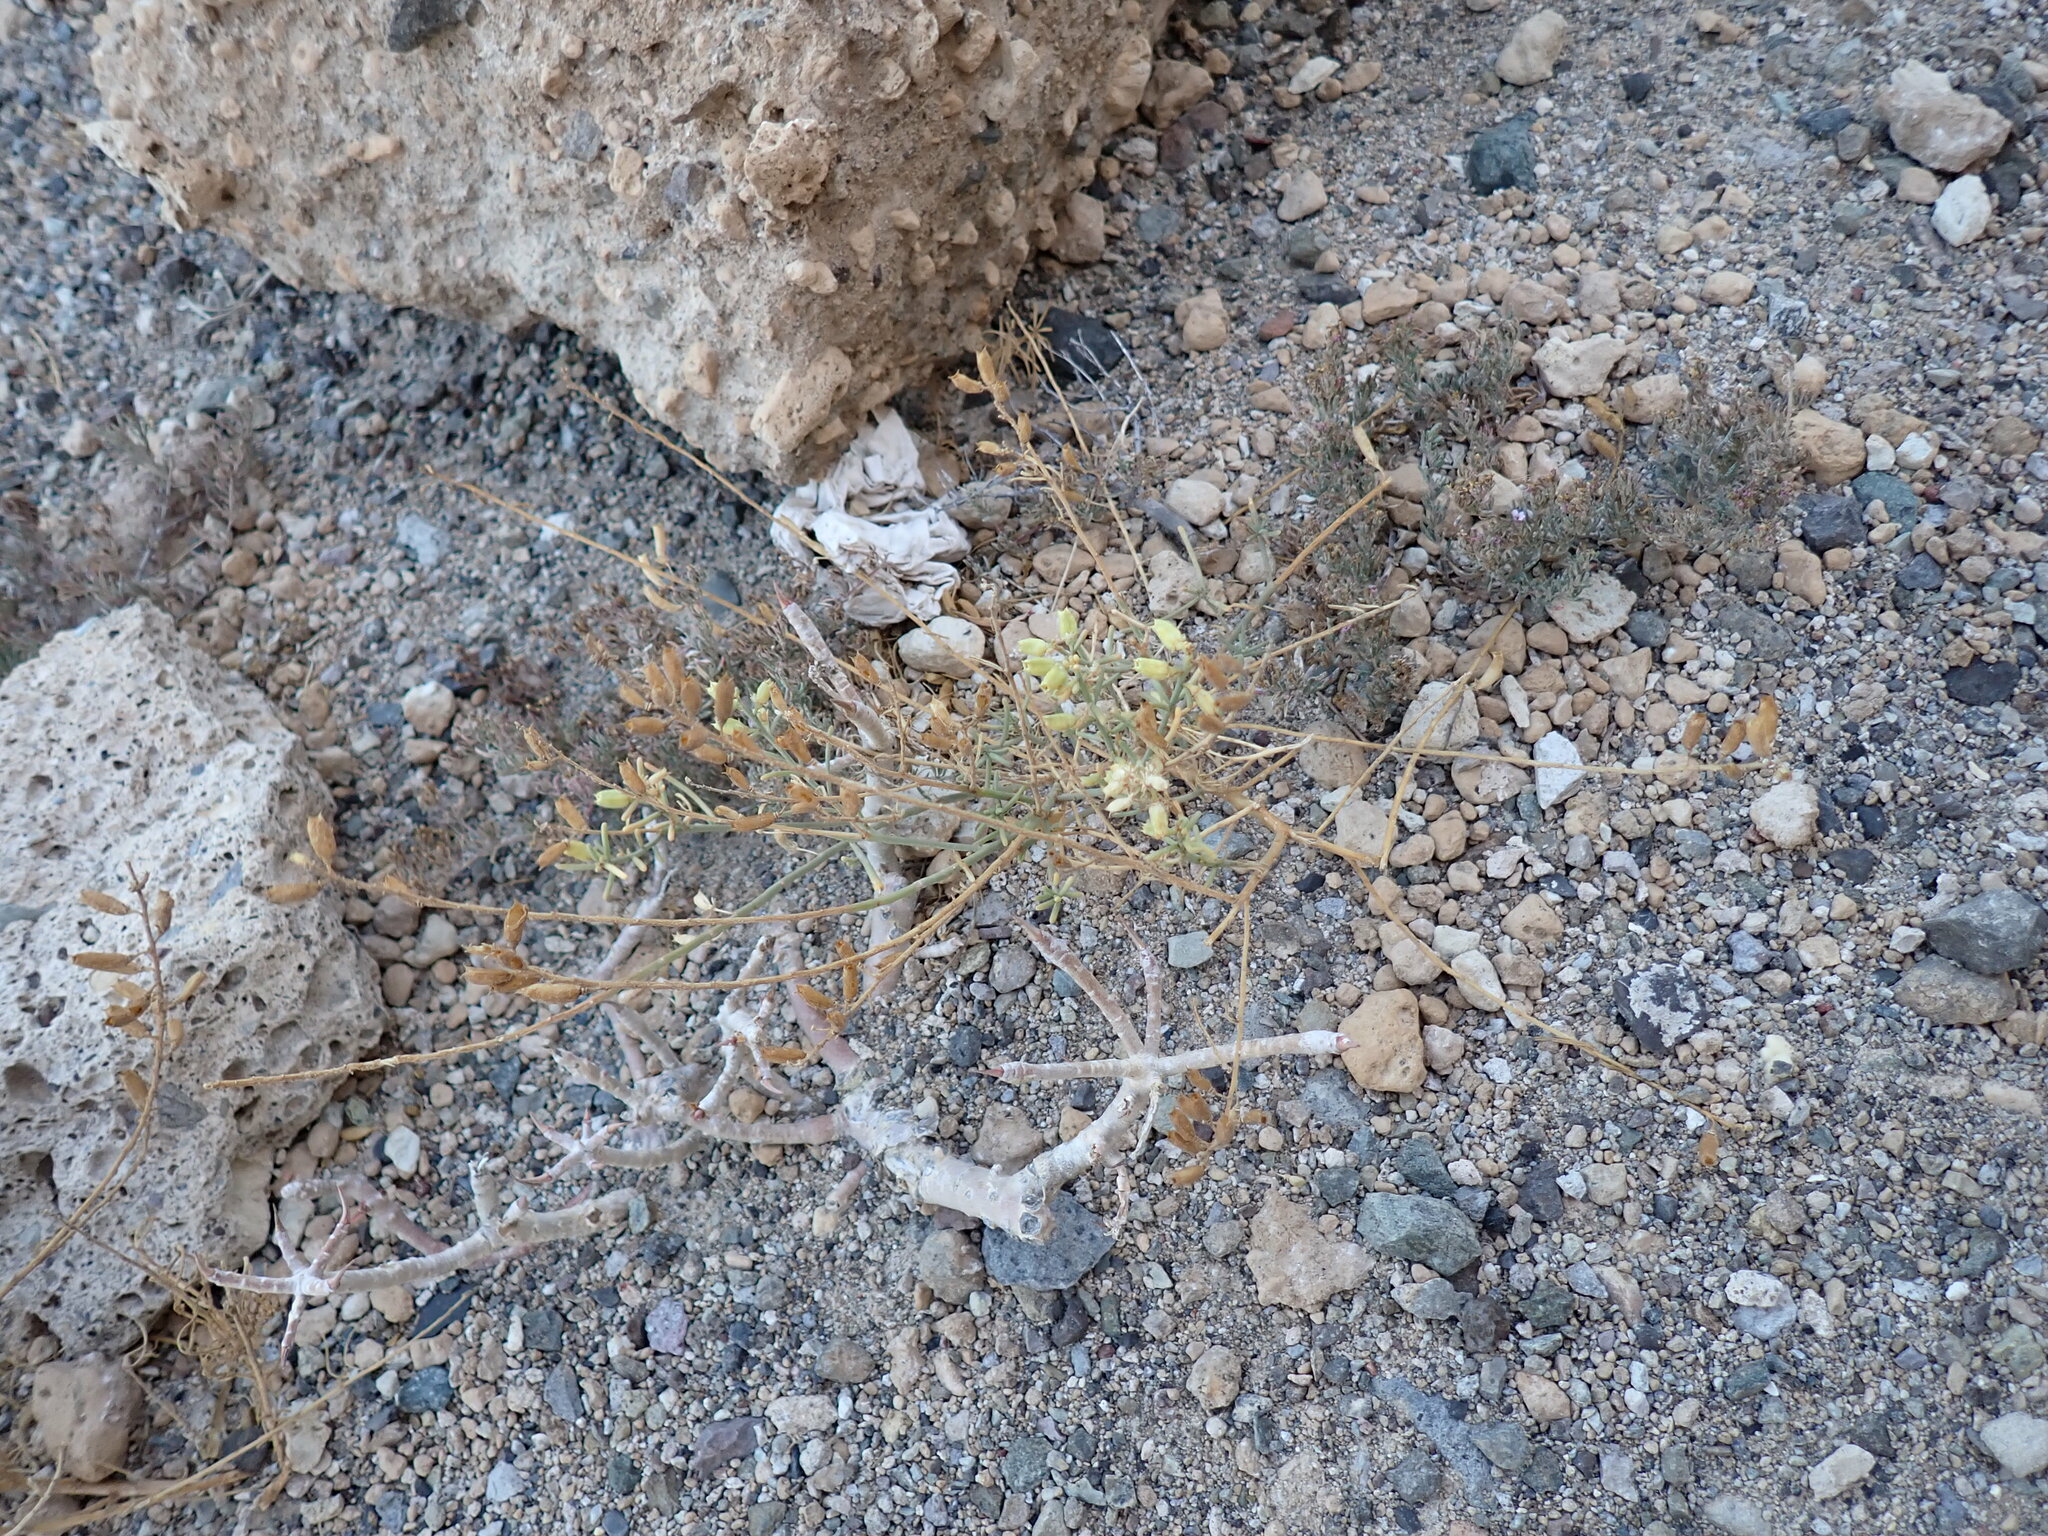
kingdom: Plantae
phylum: Tracheophyta
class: Magnoliopsida
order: Brassicales
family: Resedaceae
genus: Reseda
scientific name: Reseda scoparia
